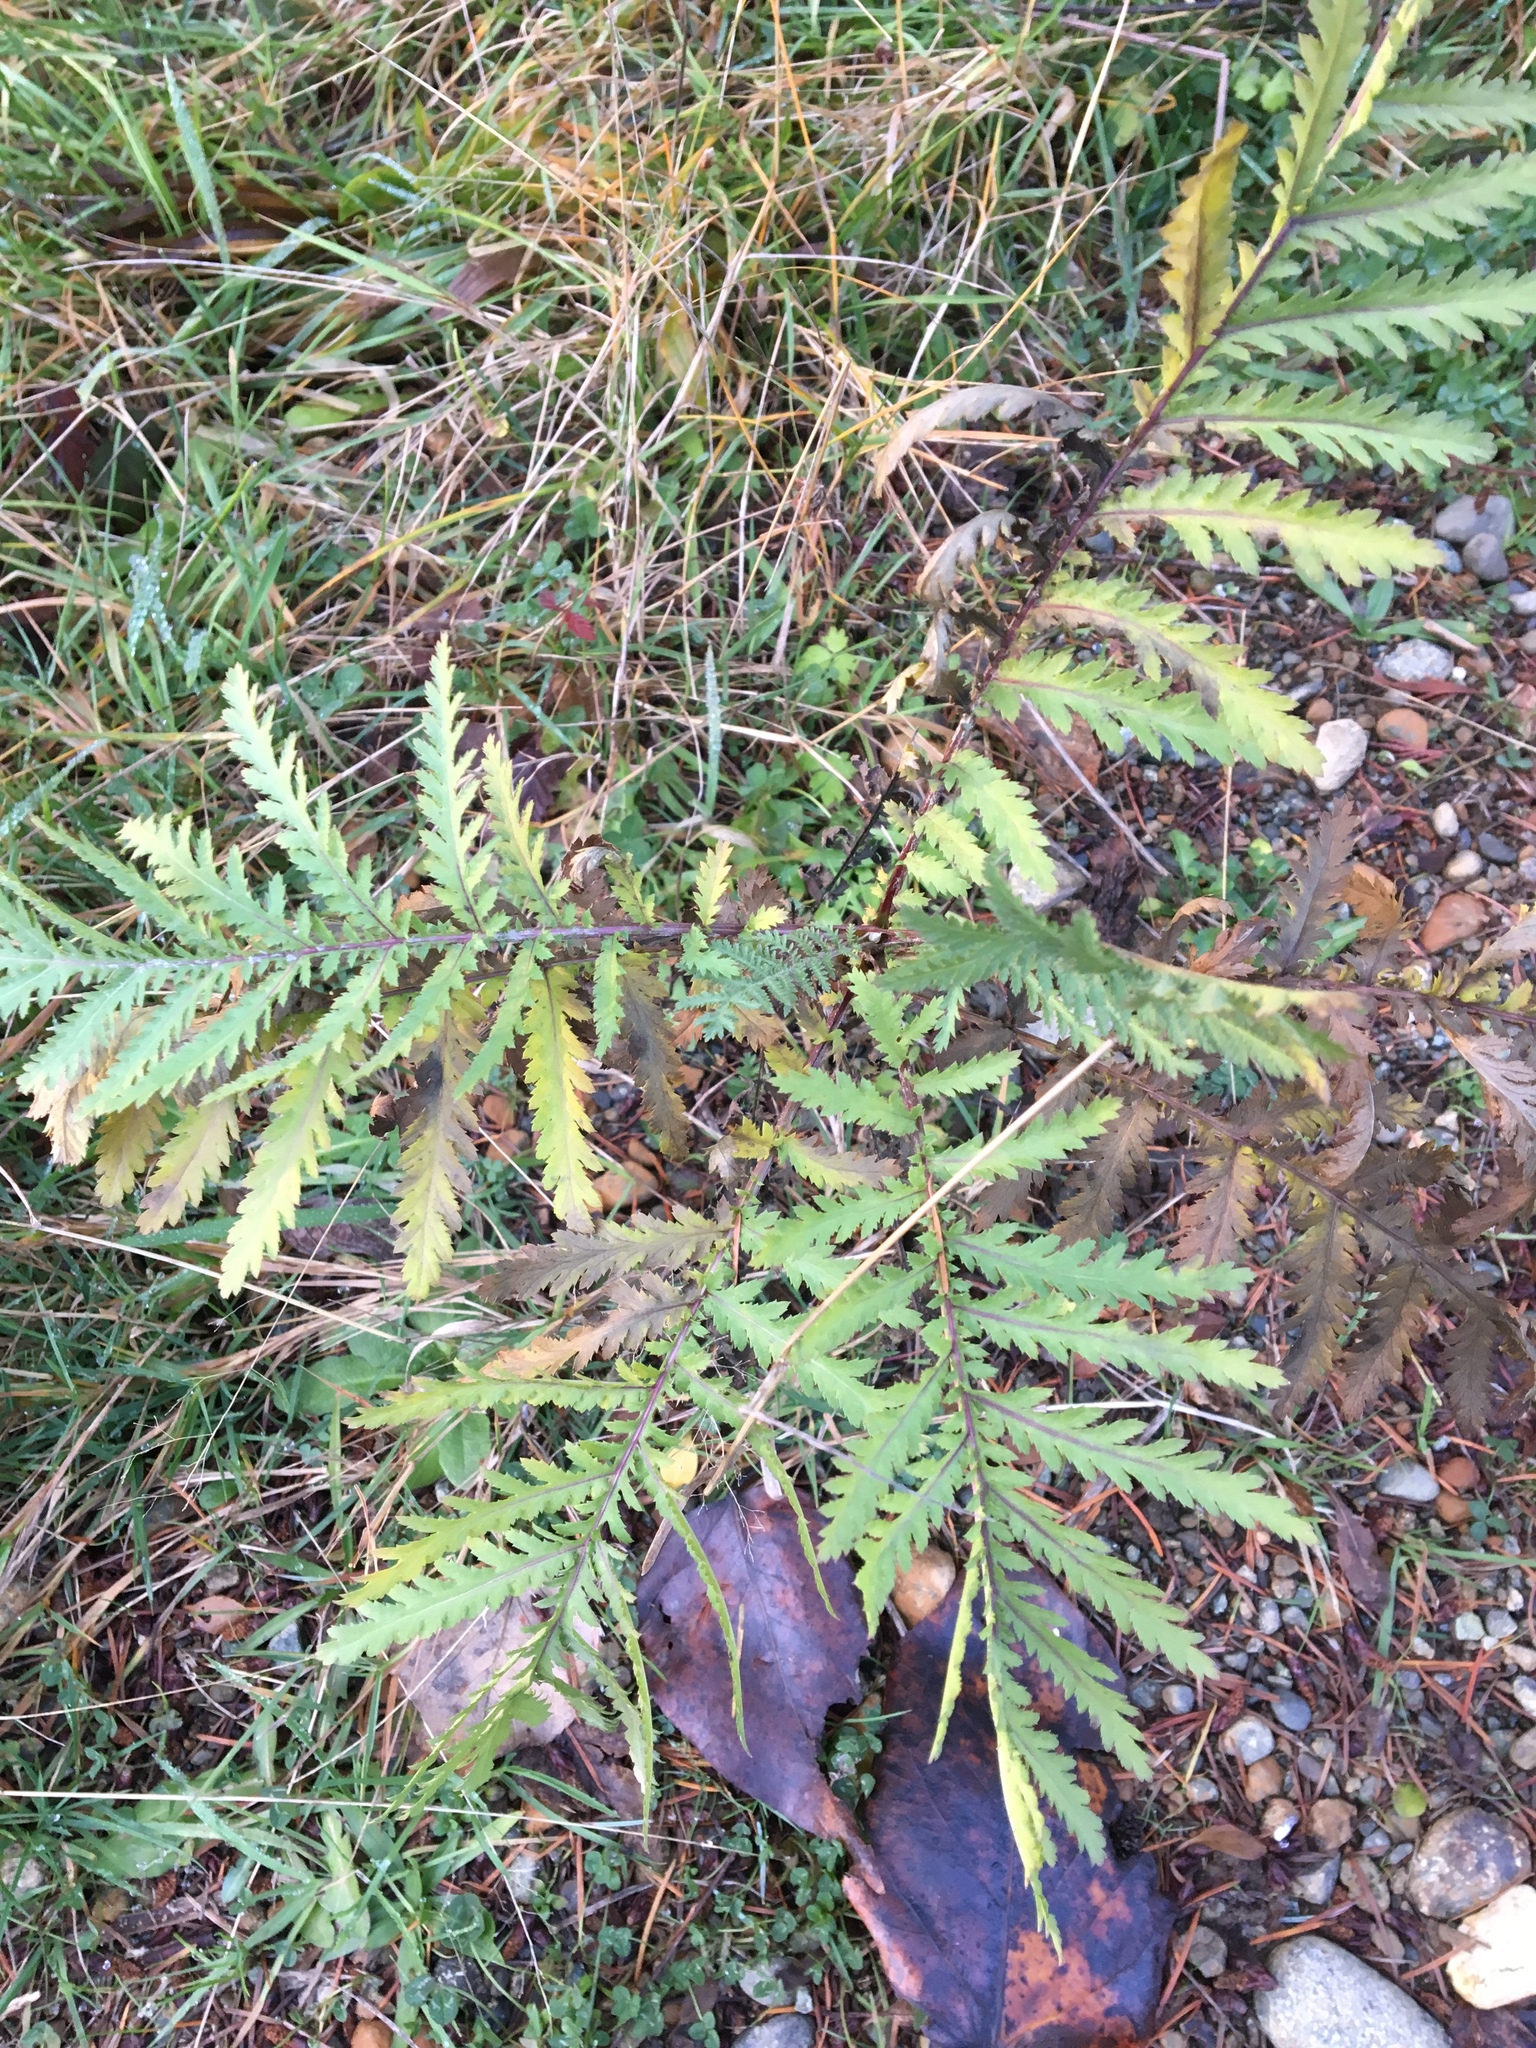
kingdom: Plantae
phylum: Tracheophyta
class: Magnoliopsida
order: Asterales
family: Asteraceae
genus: Tanacetum
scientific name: Tanacetum vulgare
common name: Common tansy
